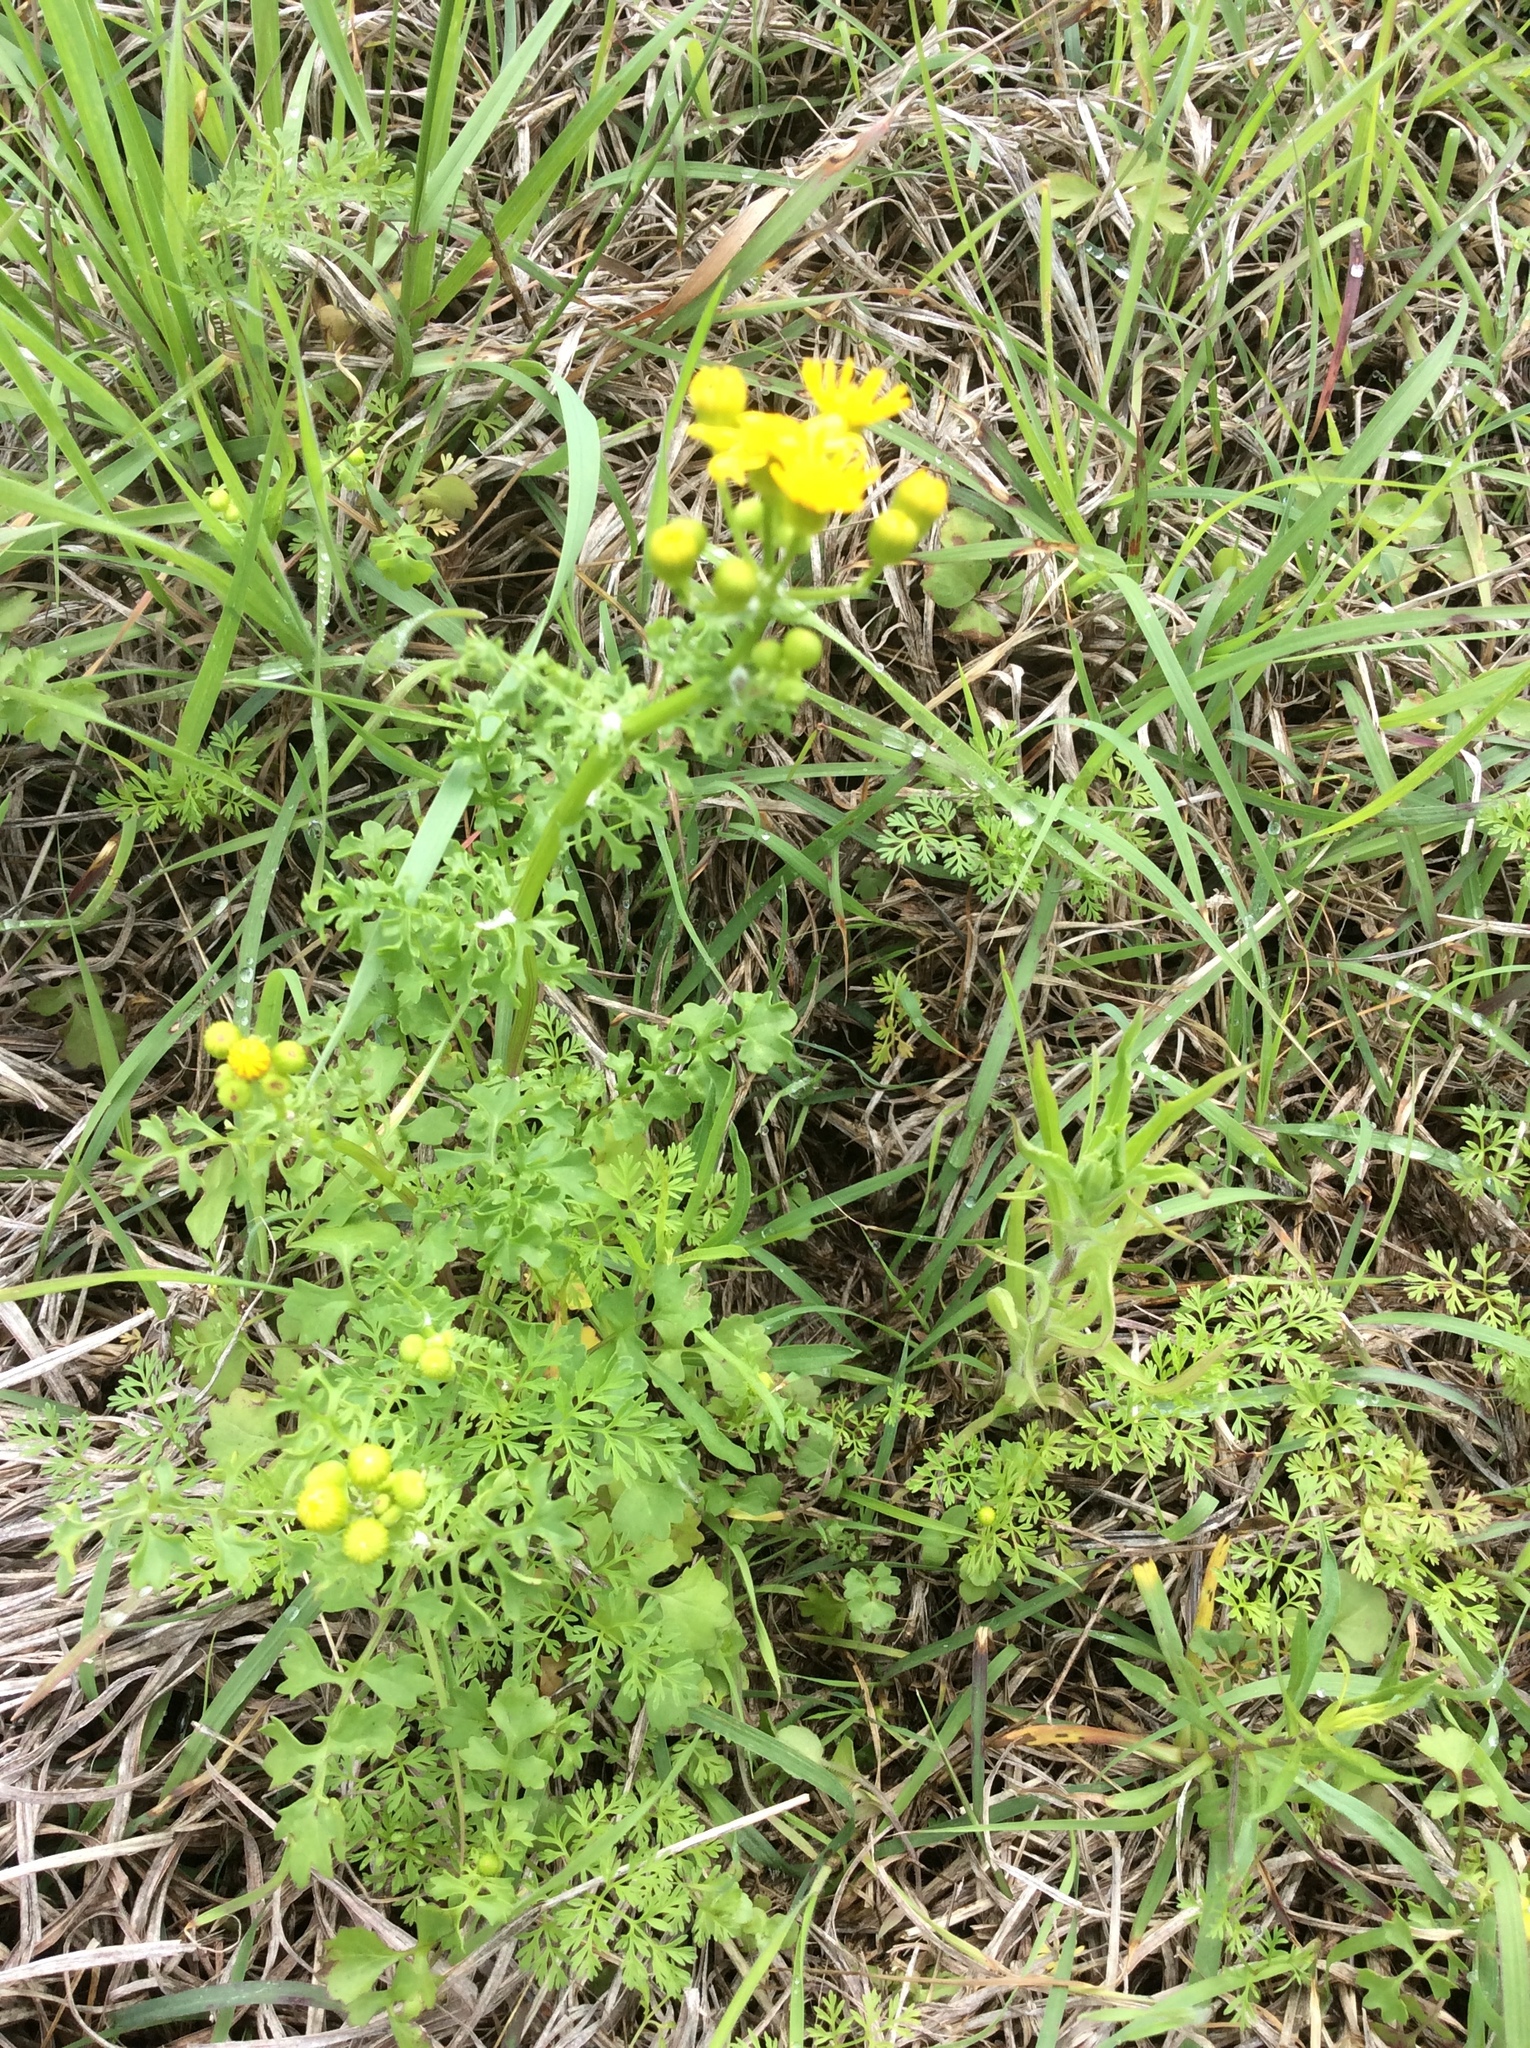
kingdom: Plantae
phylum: Tracheophyta
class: Magnoliopsida
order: Asterales
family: Asteraceae
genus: Packera
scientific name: Packera tampicana
